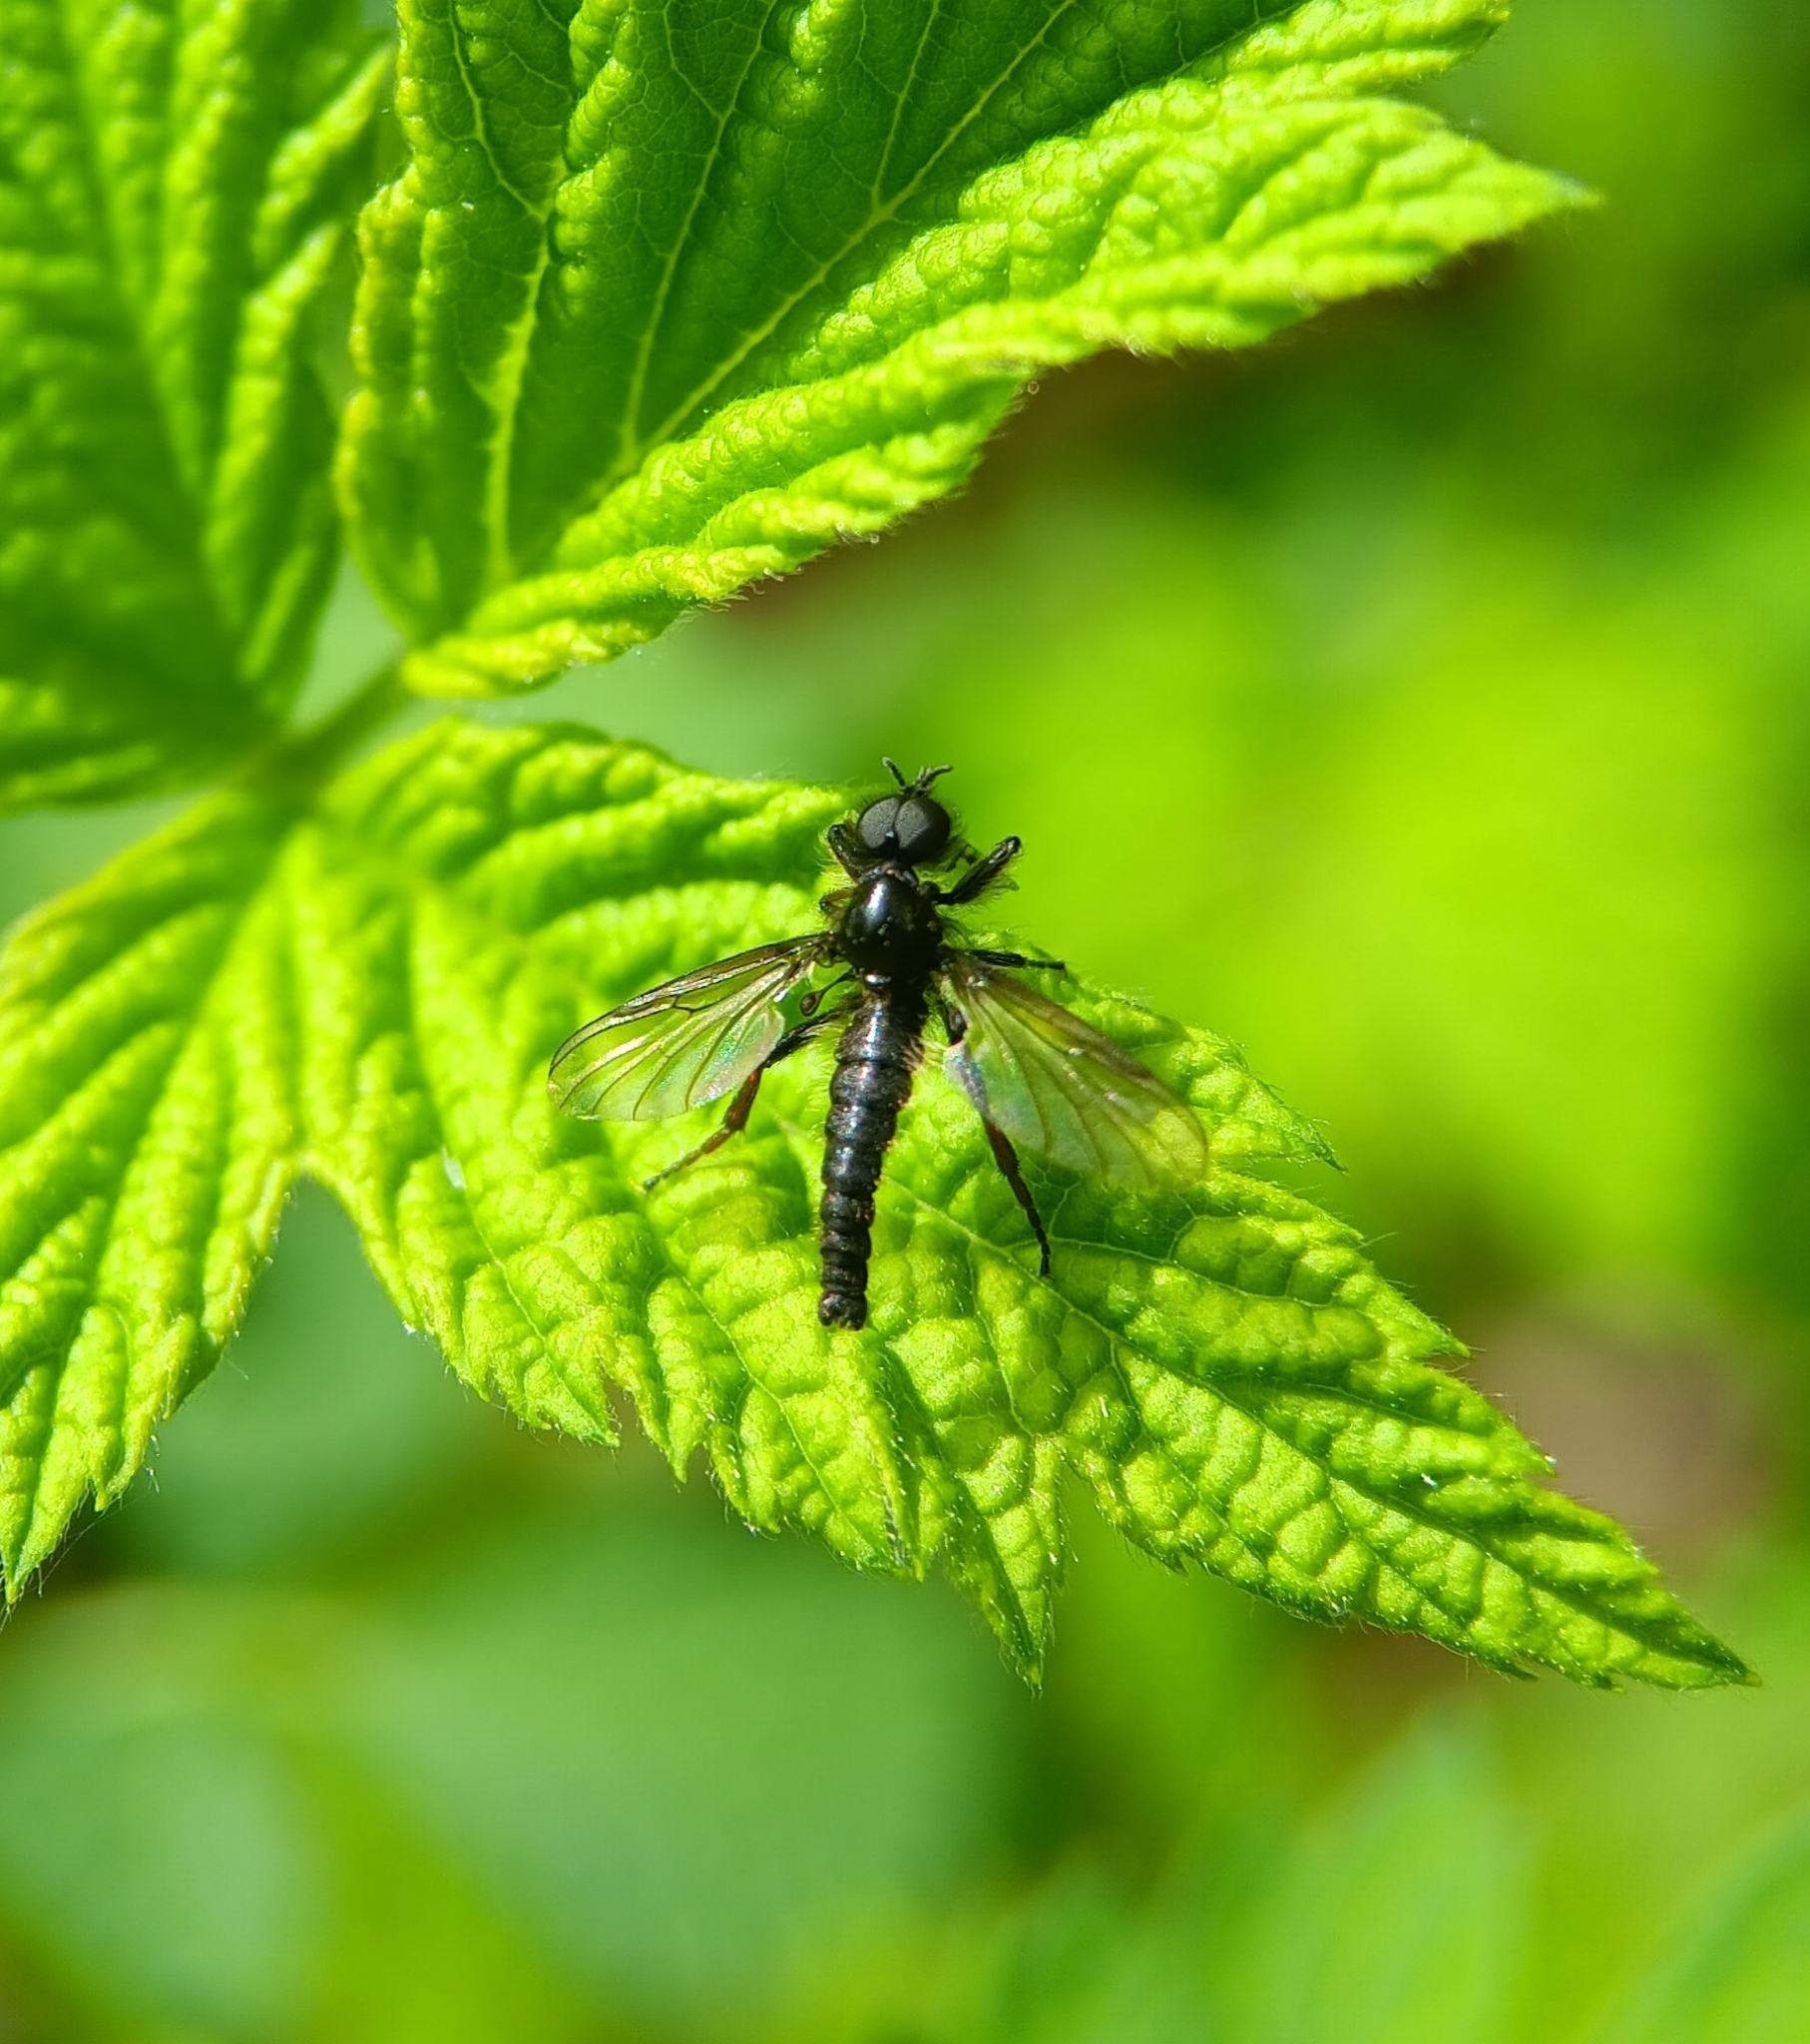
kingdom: Animalia
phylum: Arthropoda
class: Insecta
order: Diptera
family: Bibionidae
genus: Bibio
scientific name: Bibio lanigerus
